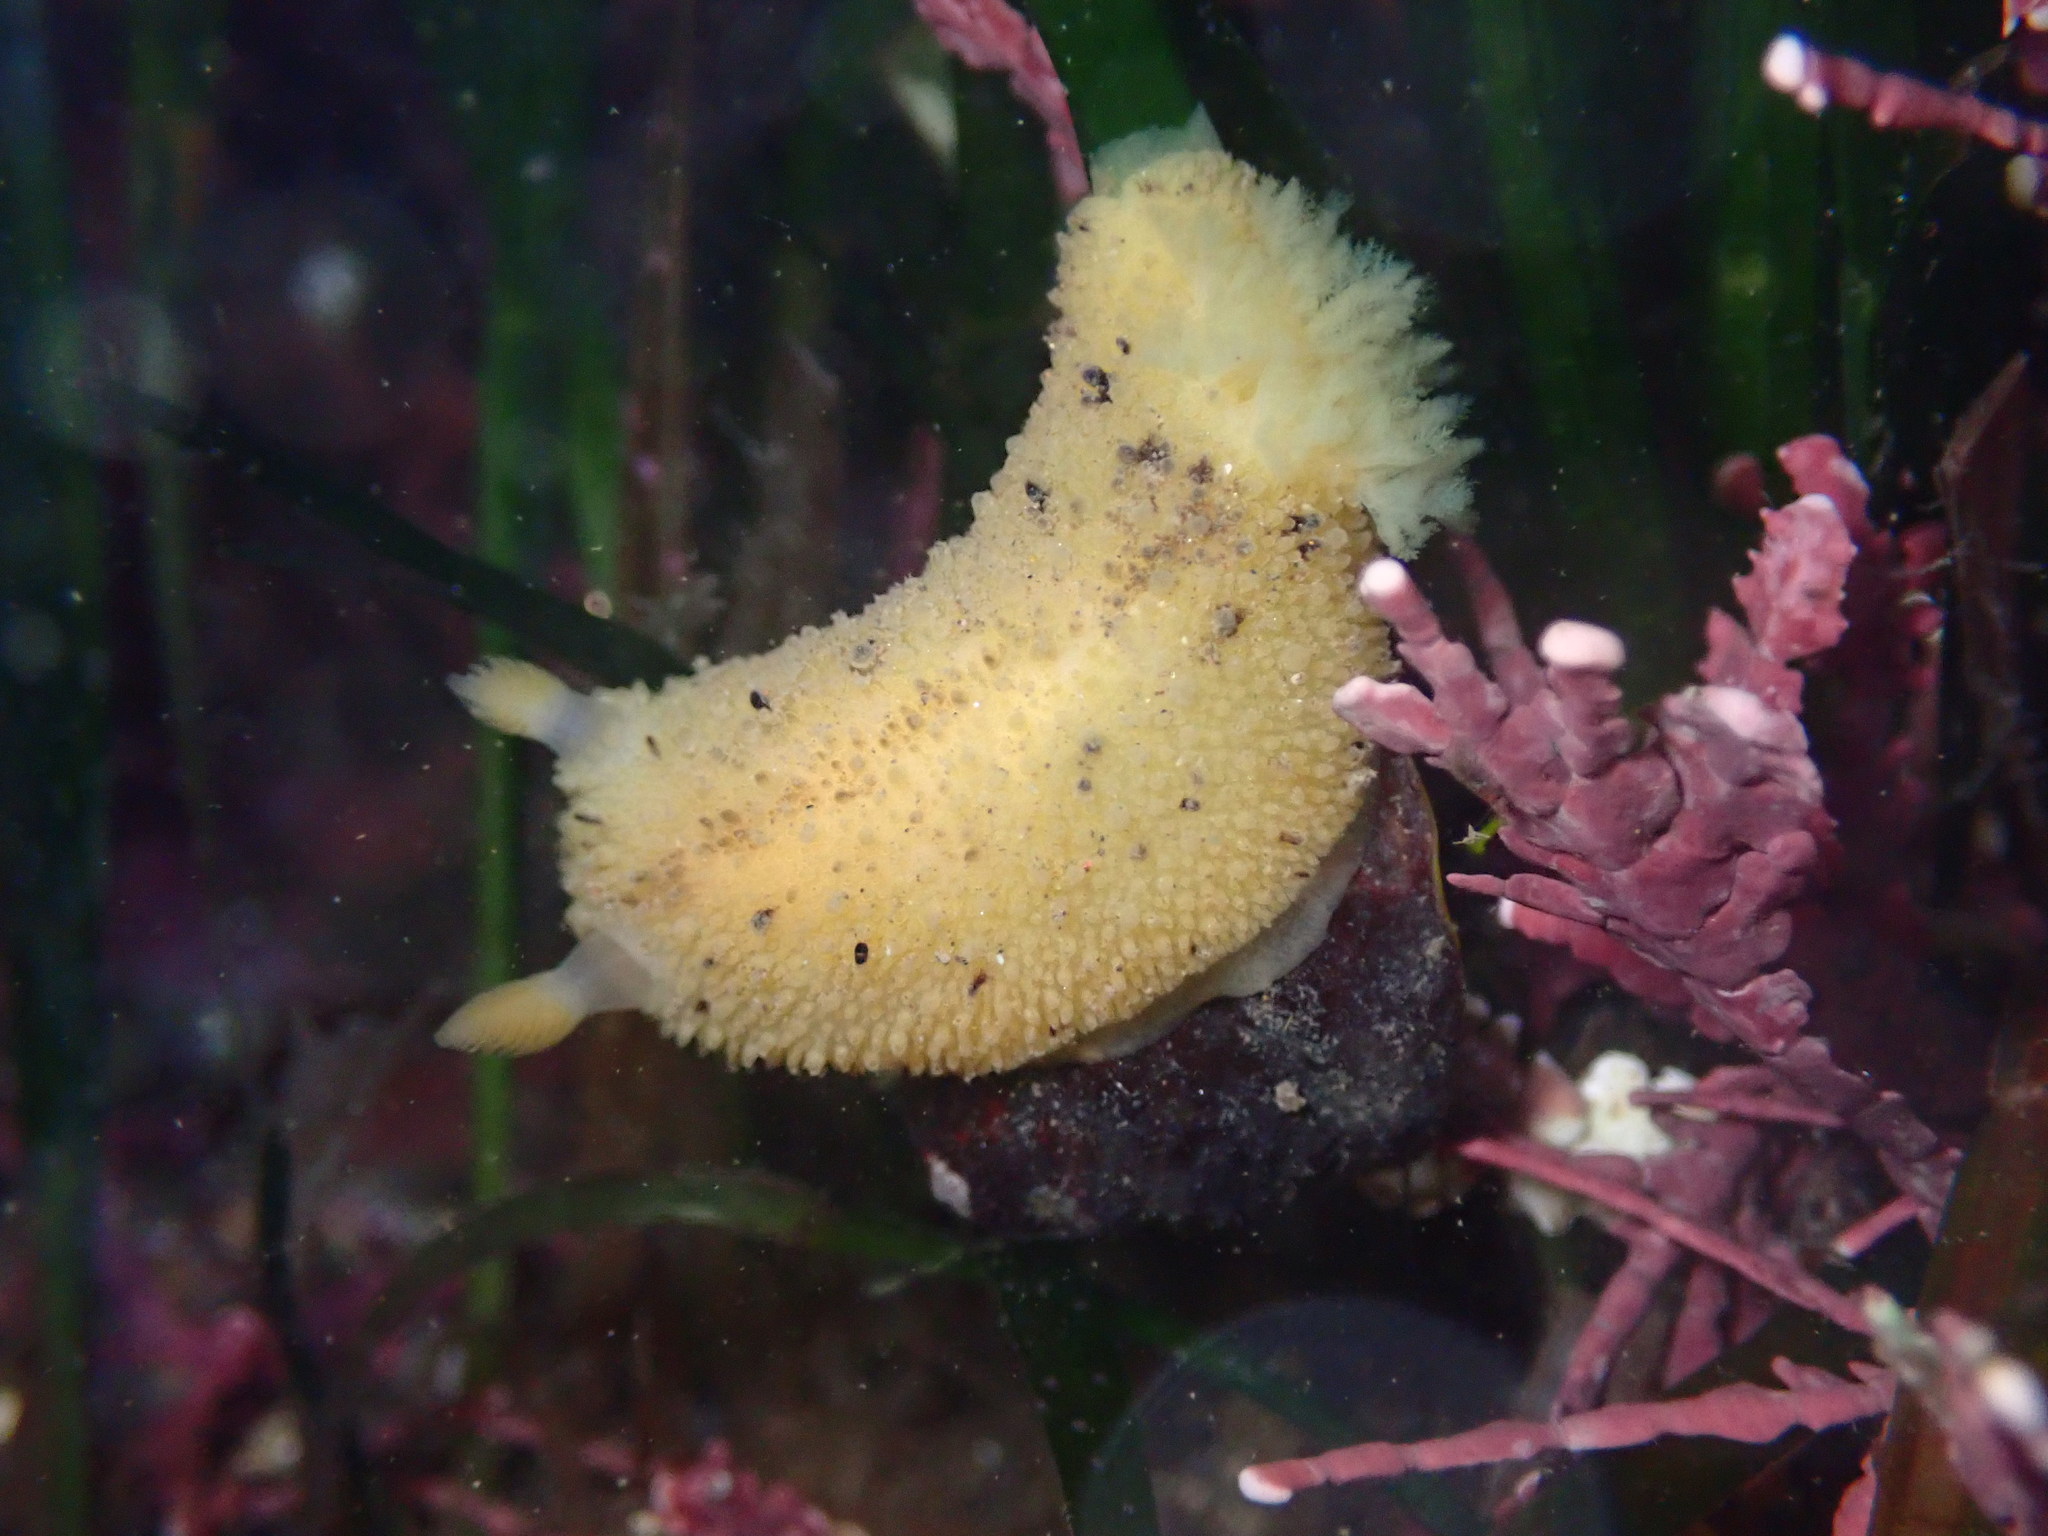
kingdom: Animalia
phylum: Mollusca
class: Gastropoda
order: Nudibranchia
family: Dorididae
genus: Doris
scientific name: Doris montereyensis
